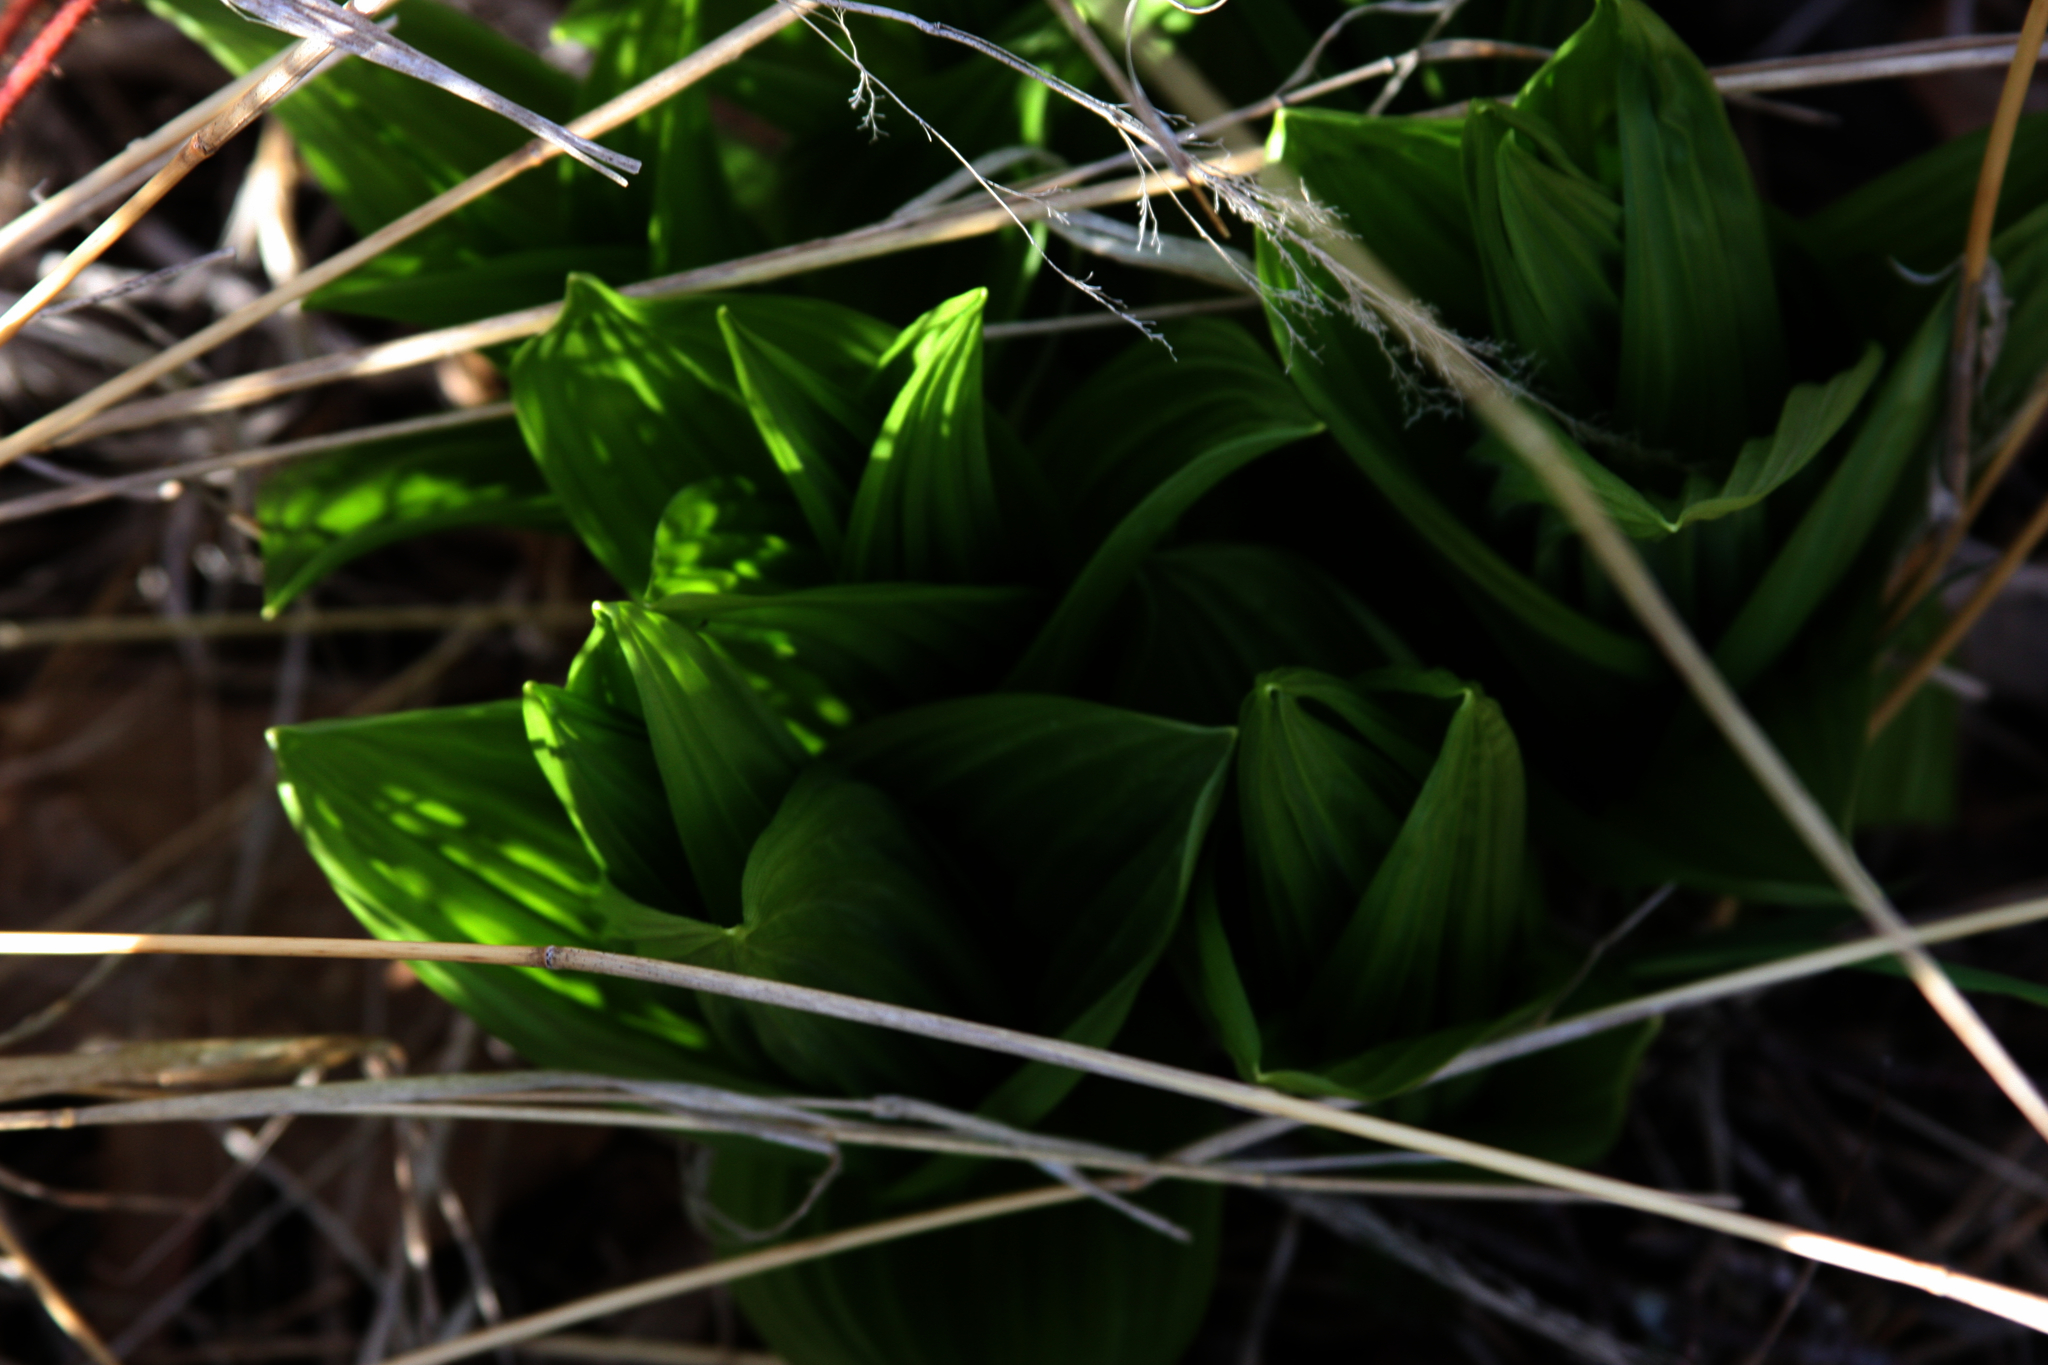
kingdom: Plantae
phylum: Tracheophyta
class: Liliopsida
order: Liliales
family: Melanthiaceae
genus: Veratrum
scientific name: Veratrum viride
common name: American false hellebore
